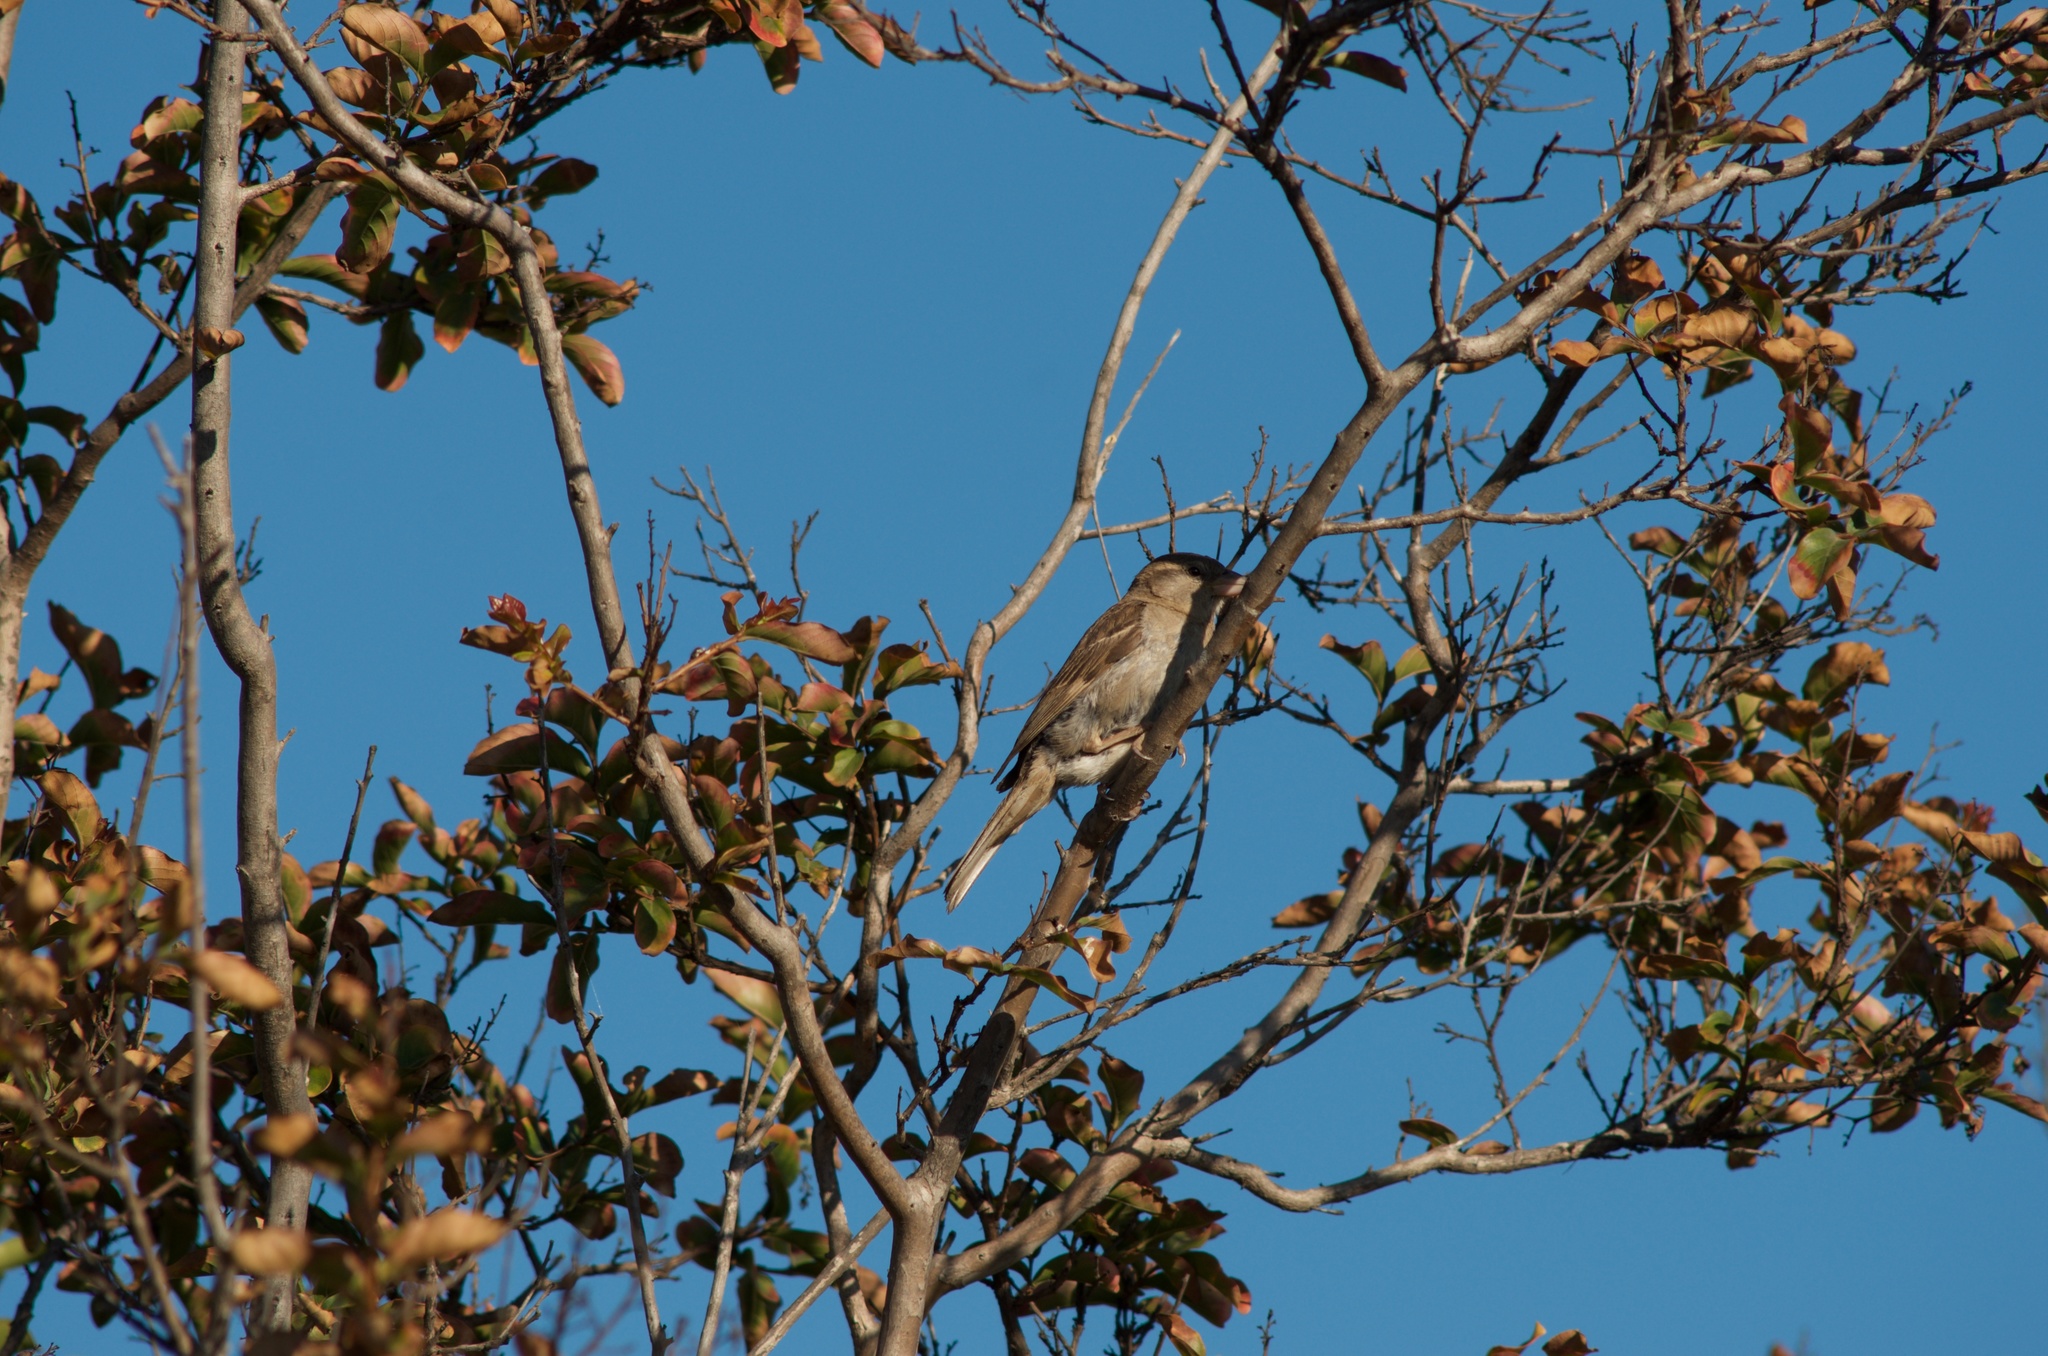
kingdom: Animalia
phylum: Chordata
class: Aves
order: Passeriformes
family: Passeridae
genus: Passer
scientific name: Passer domesticus
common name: House sparrow
